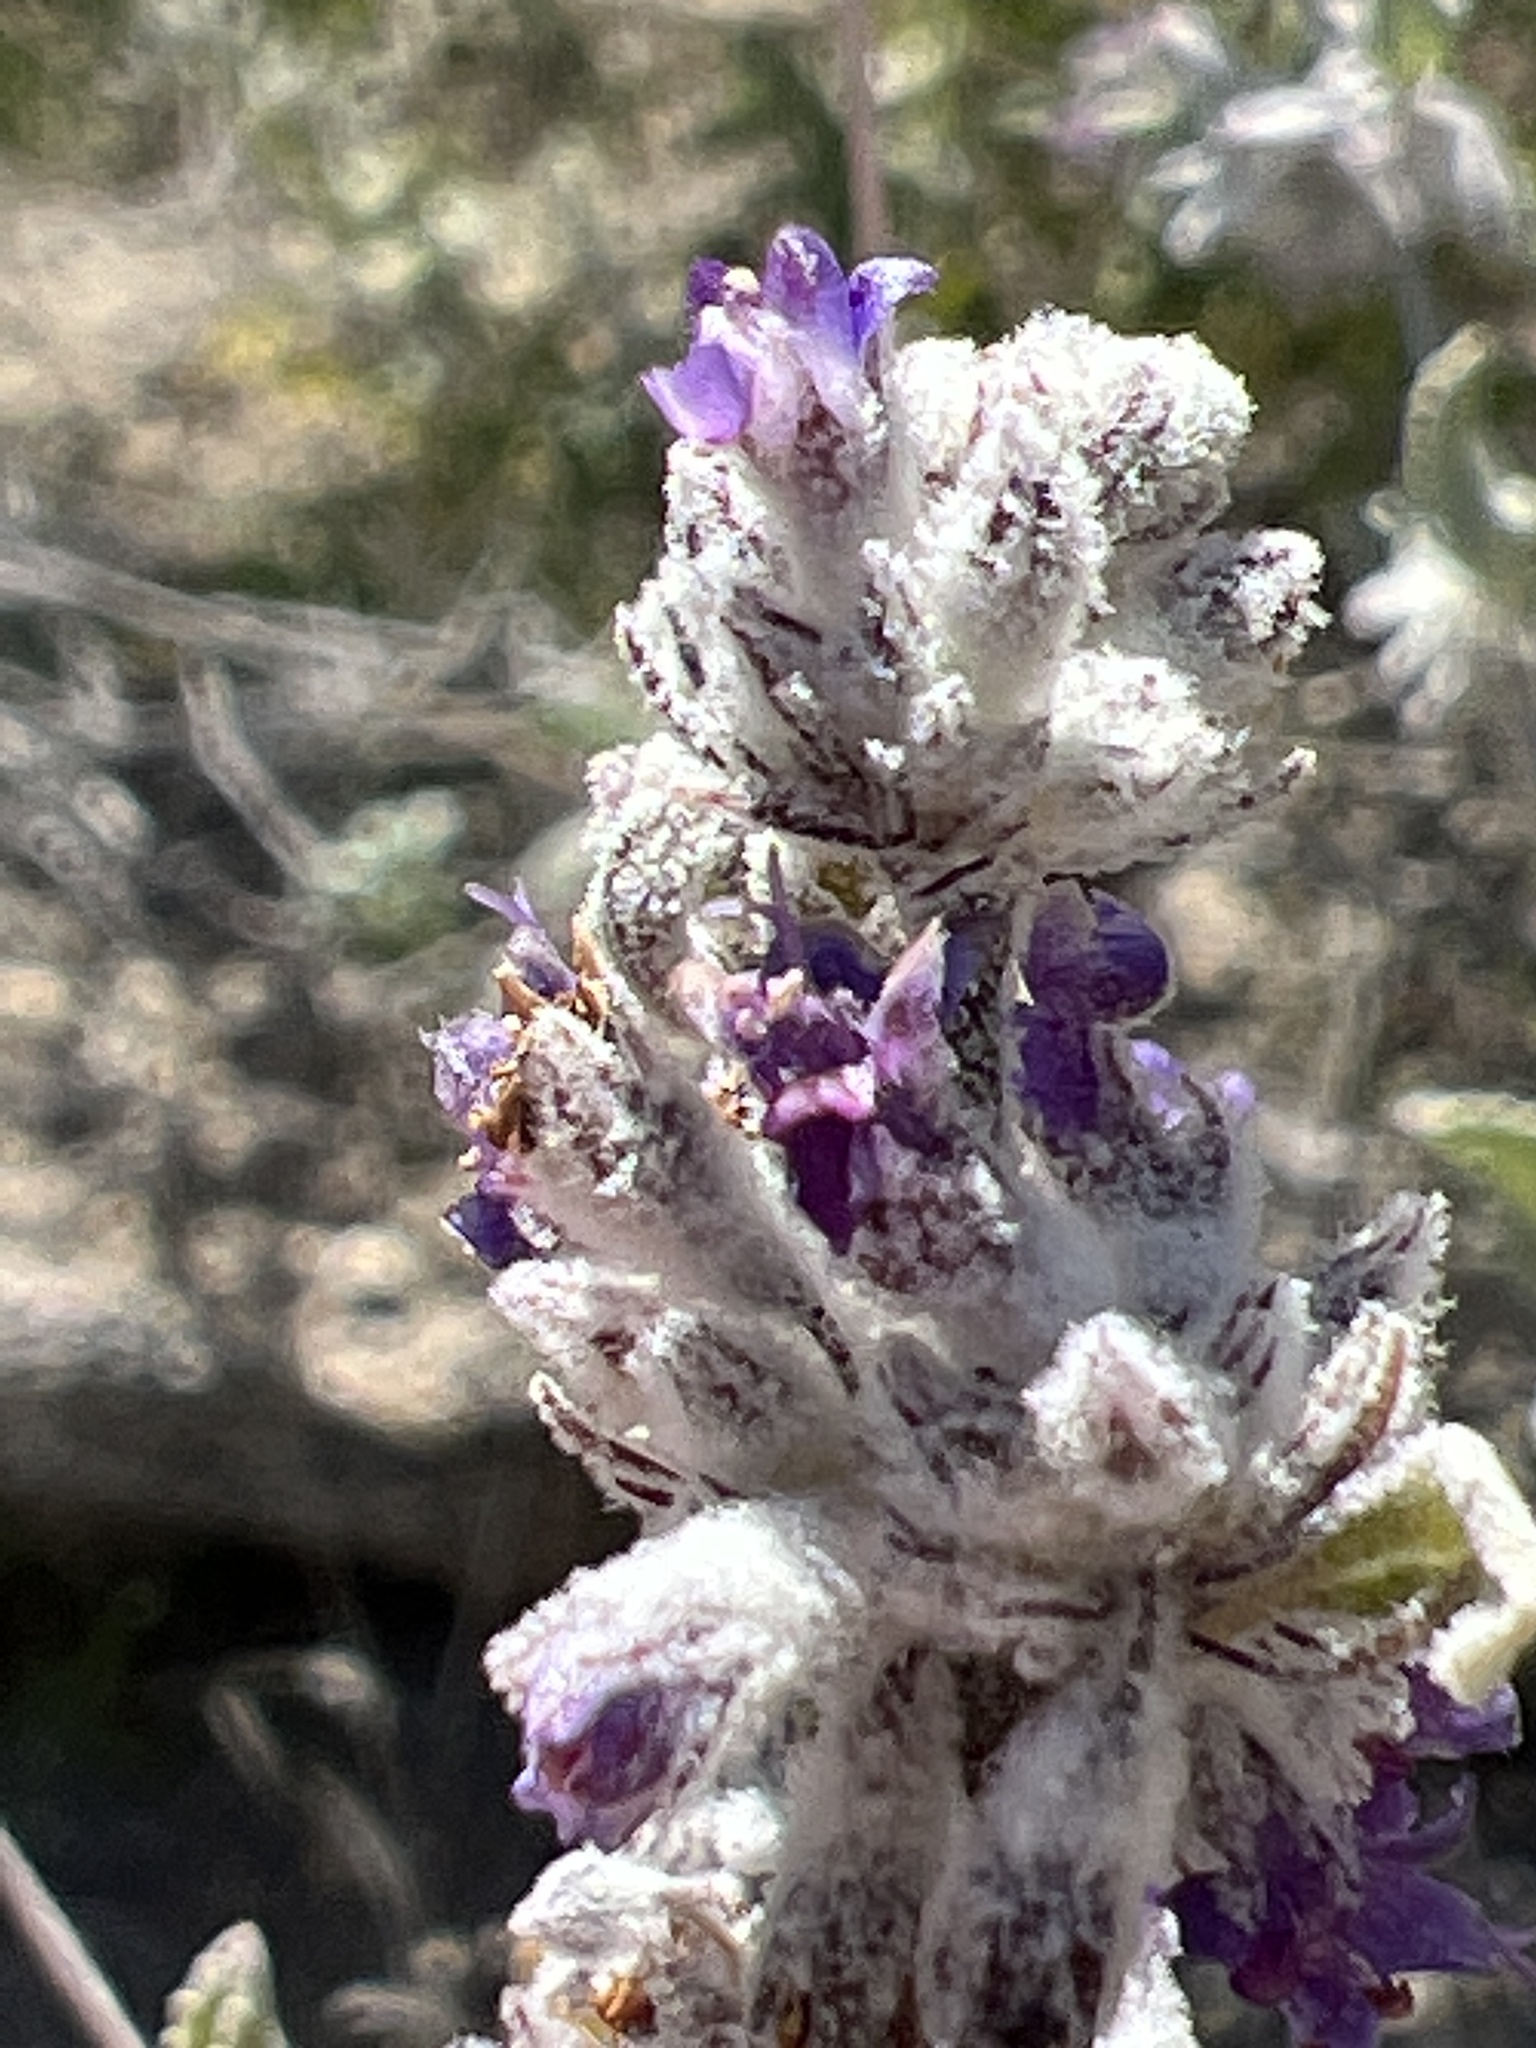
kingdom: Plantae
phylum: Tracheophyta
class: Magnoliopsida
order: Lamiales
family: Lamiaceae
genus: Condea
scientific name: Condea emoryi
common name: Chia
